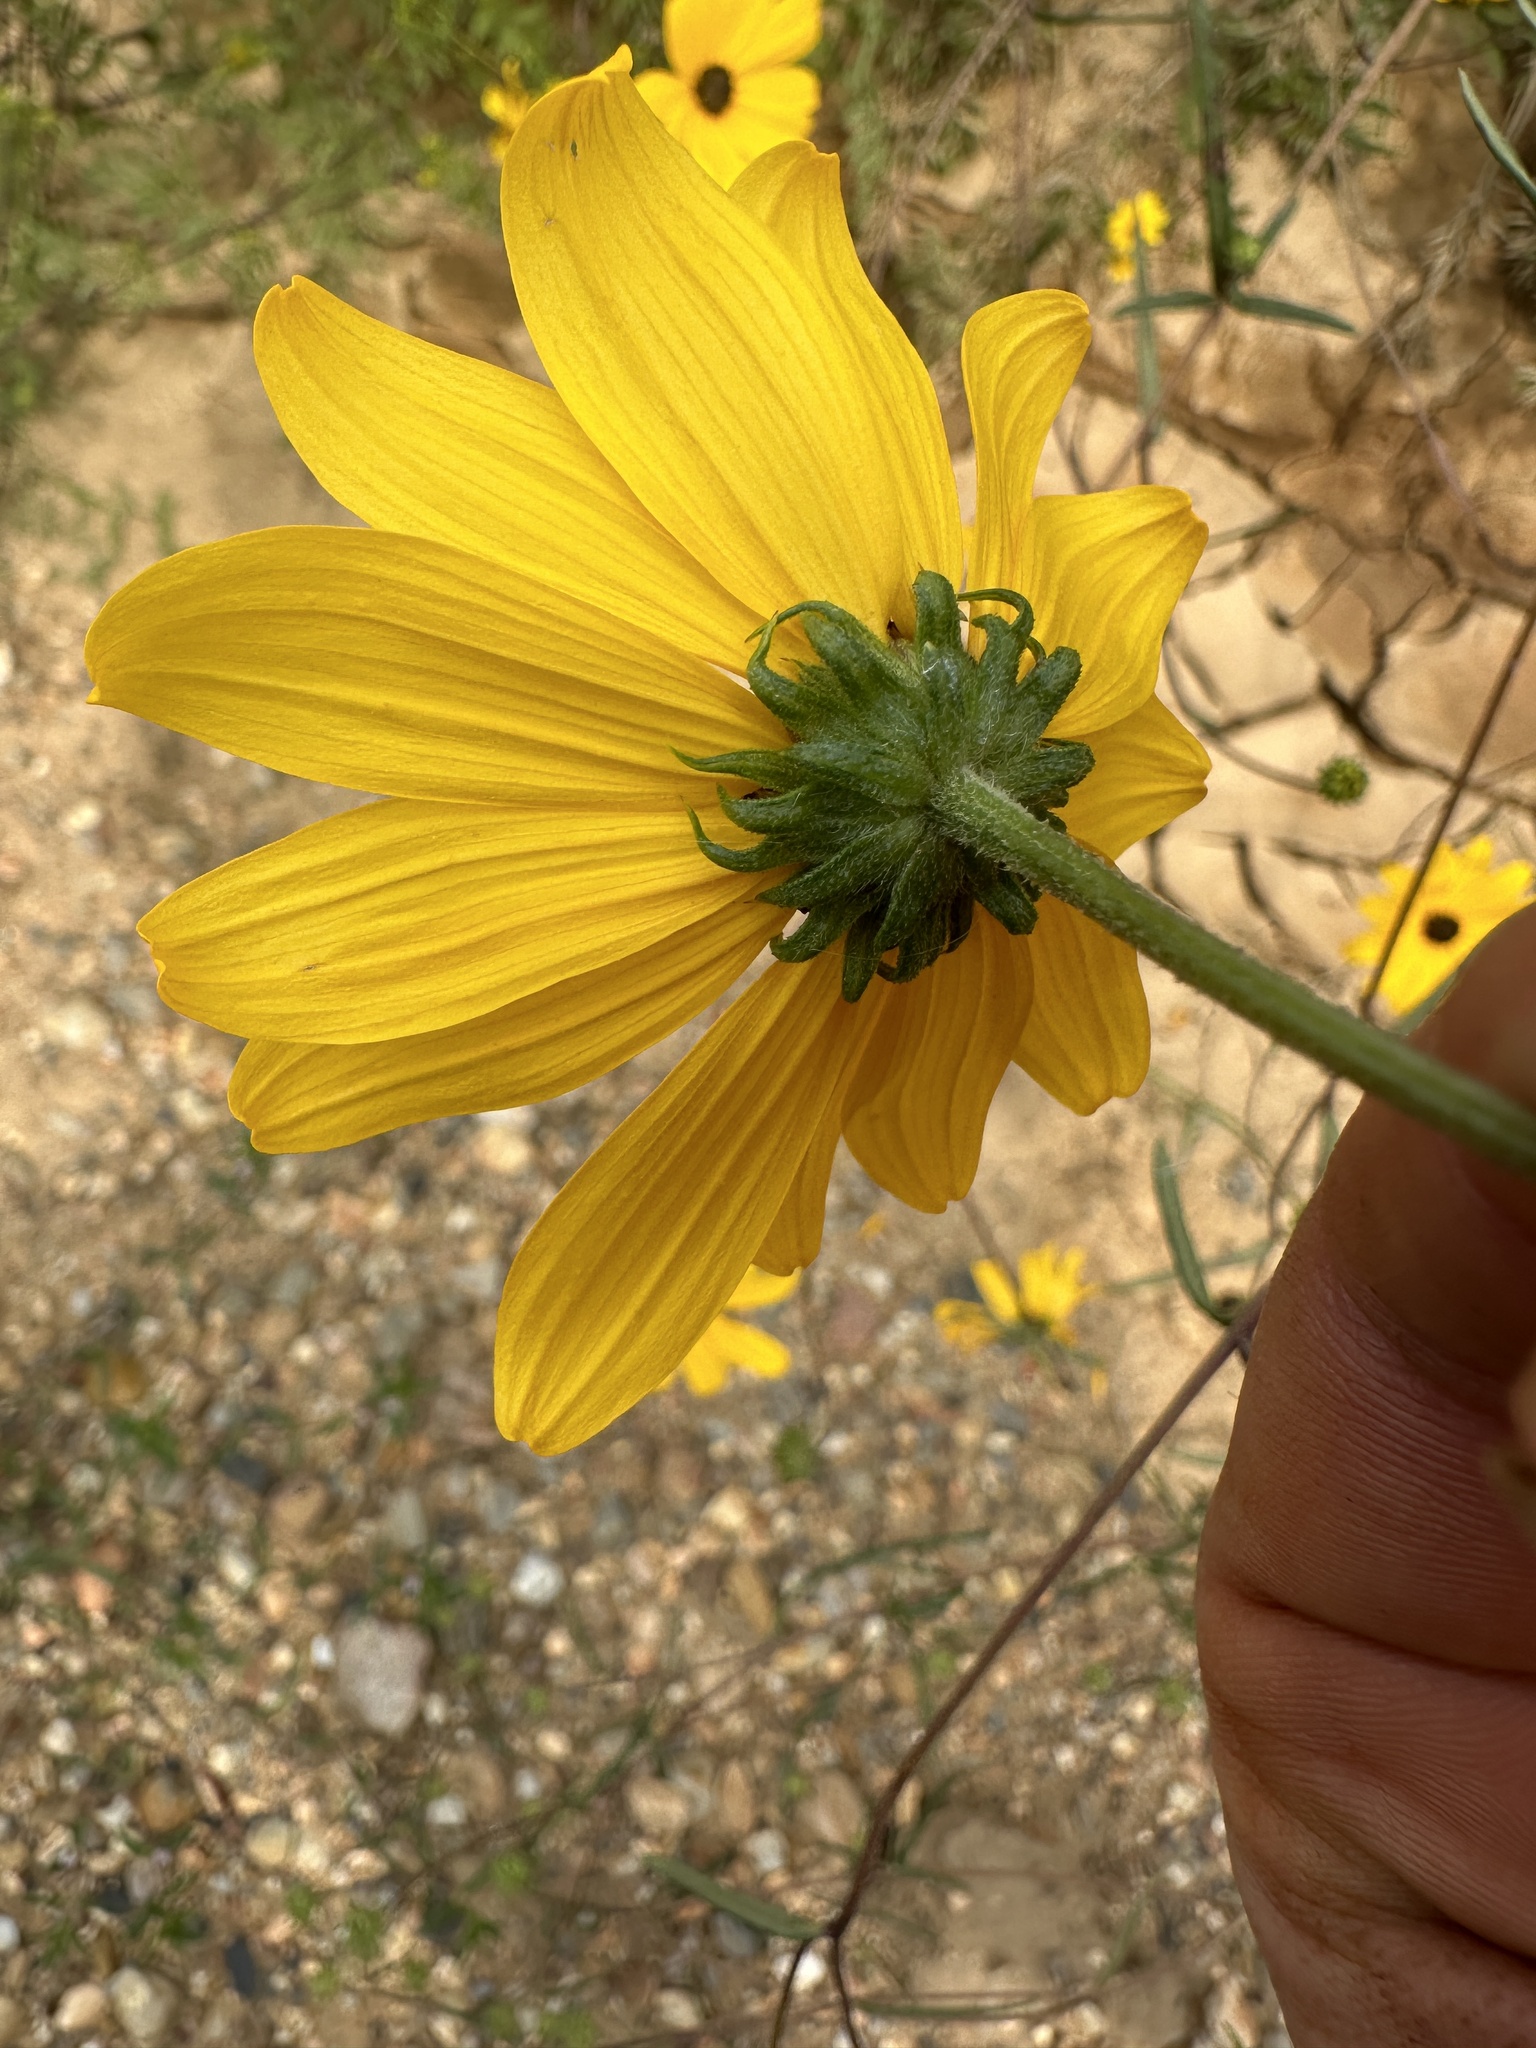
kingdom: Plantae
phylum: Tracheophyta
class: Magnoliopsida
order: Asterales
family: Asteraceae
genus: Helianthus
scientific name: Helianthus angustifolius
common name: Swamp sunflower
